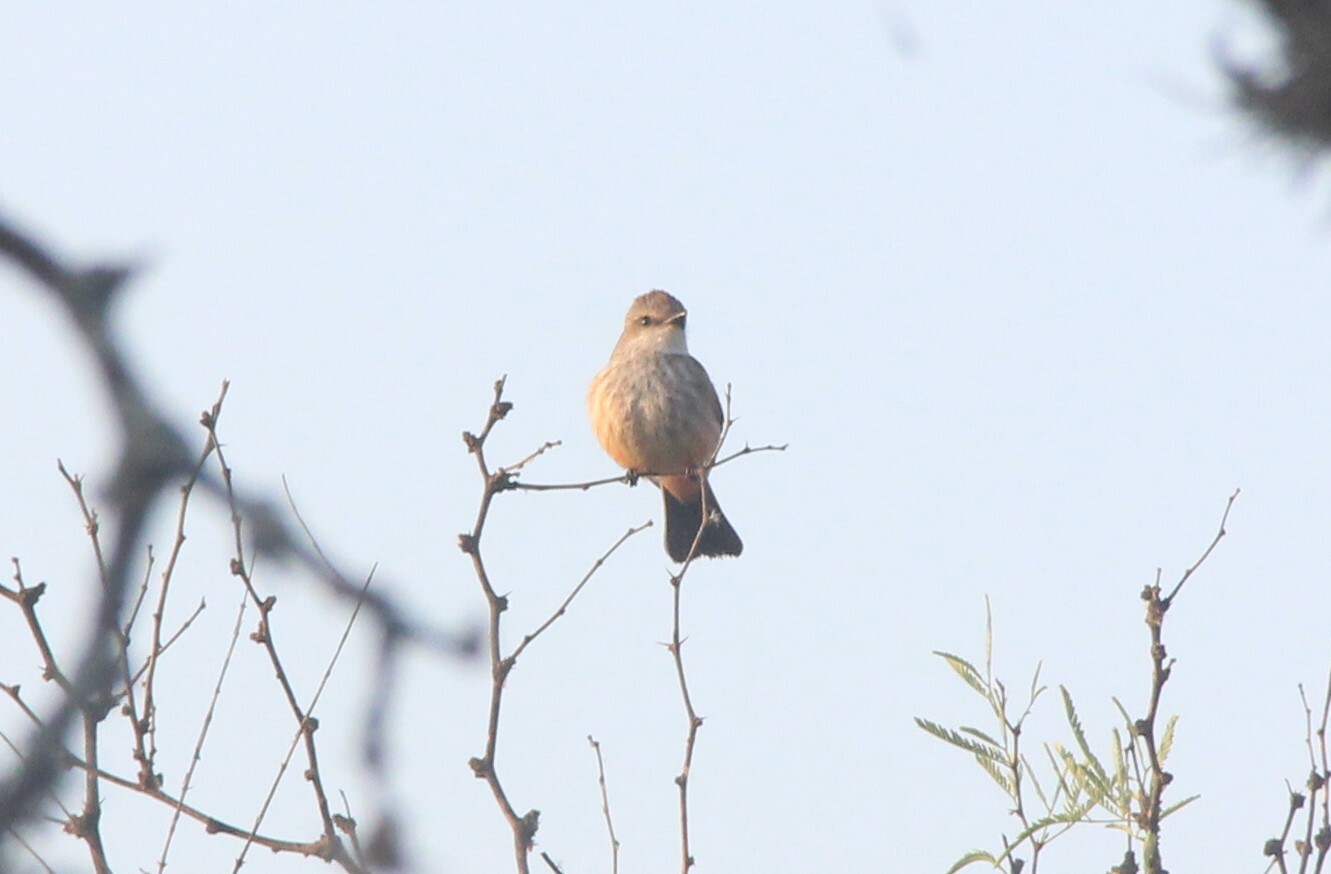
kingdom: Animalia
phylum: Chordata
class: Aves
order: Passeriformes
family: Tyrannidae
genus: Pyrocephalus
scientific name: Pyrocephalus rubinus
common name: Vermilion flycatcher
